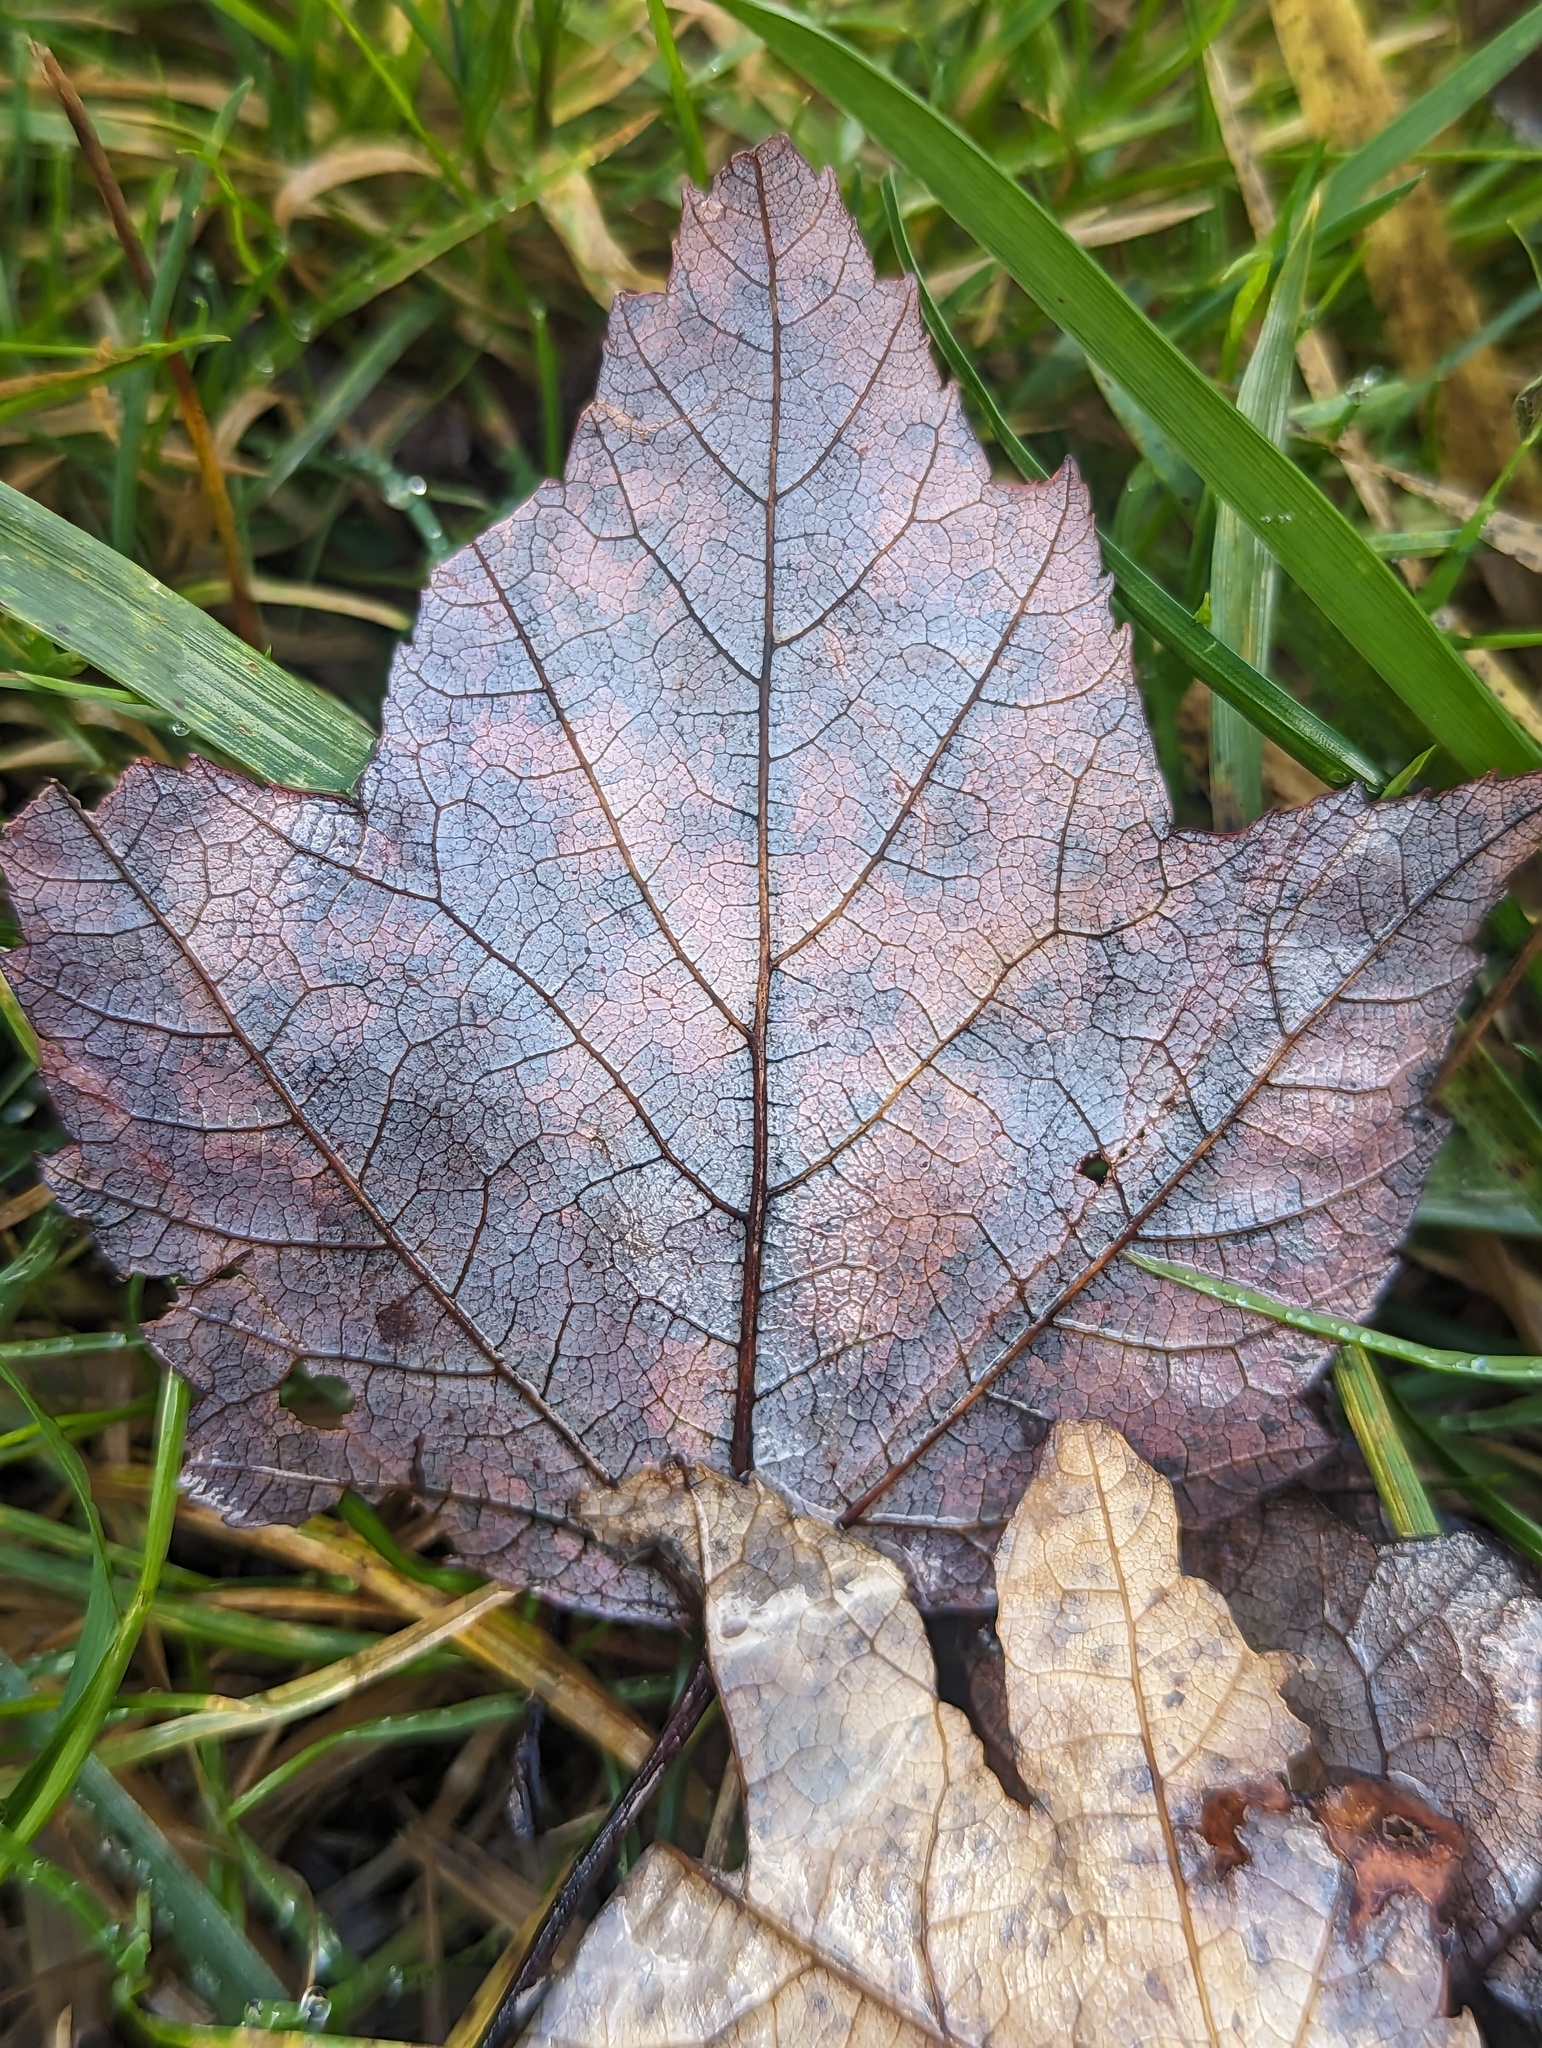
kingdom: Plantae
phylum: Tracheophyta
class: Magnoliopsida
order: Sapindales
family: Sapindaceae
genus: Acer
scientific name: Acer rubrum
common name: Red maple
